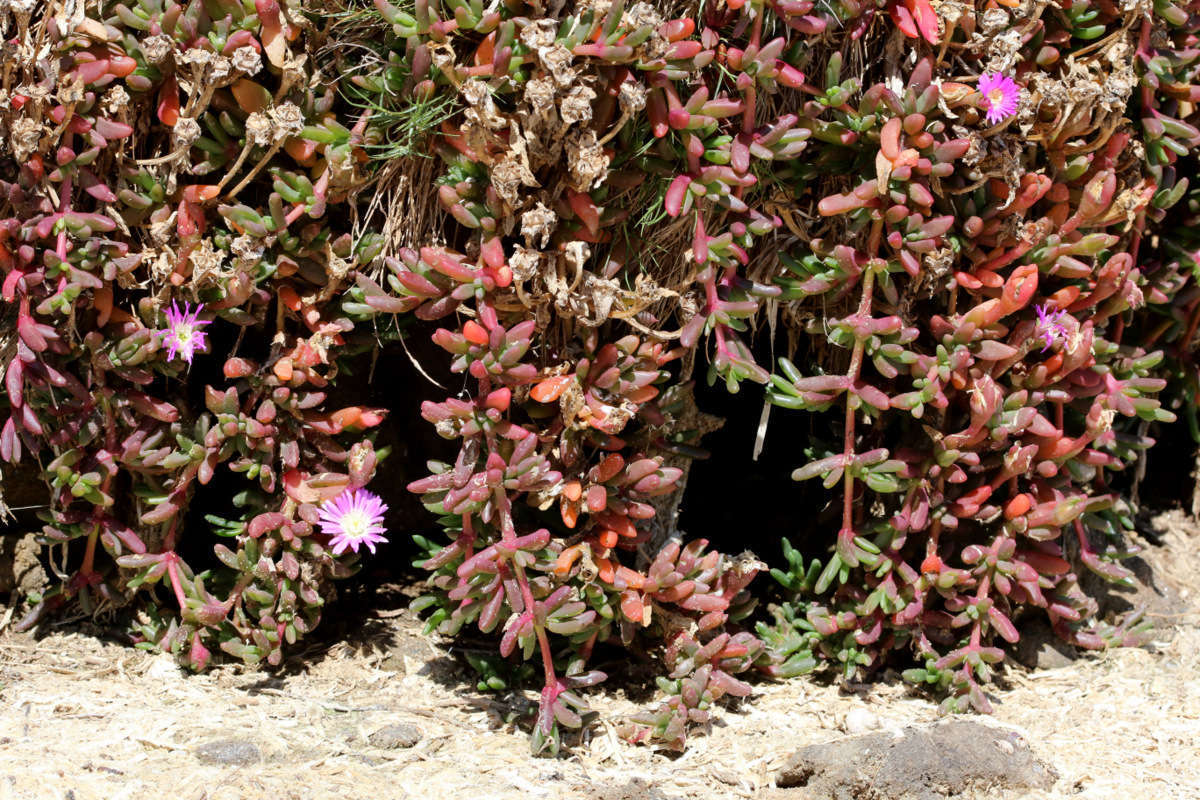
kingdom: Plantae
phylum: Tracheophyta
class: Magnoliopsida
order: Caryophyllales
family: Aizoaceae
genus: Disphyma
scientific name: Disphyma clavellatum
